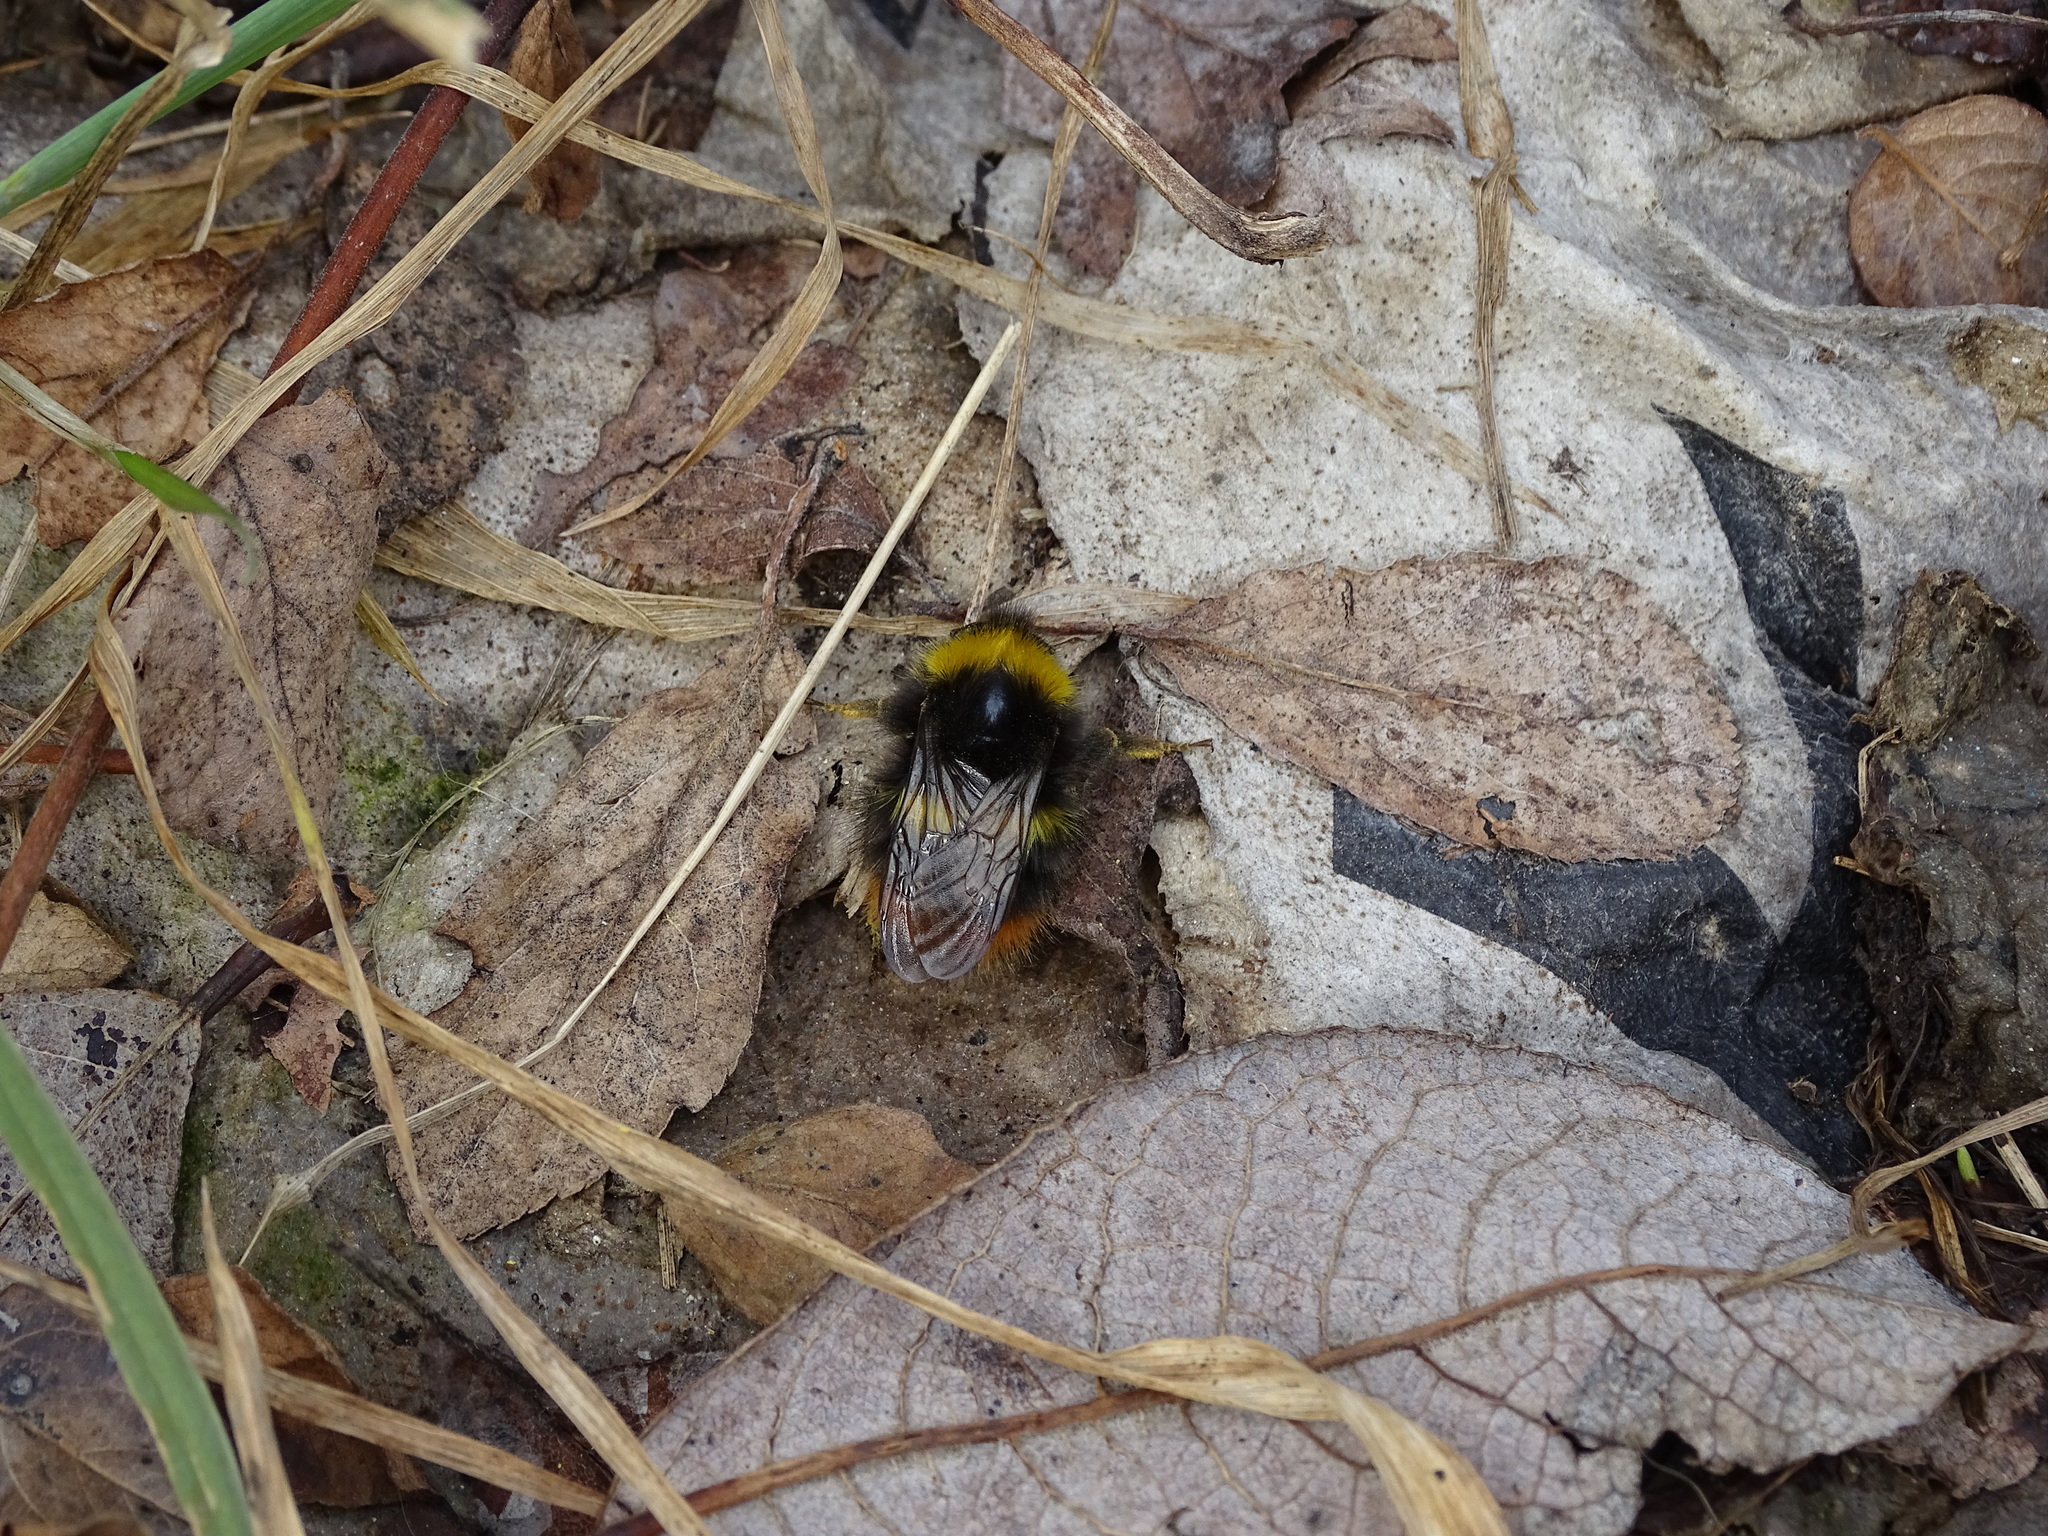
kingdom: Animalia
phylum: Arthropoda
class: Insecta
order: Hymenoptera
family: Apidae
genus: Bombus
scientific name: Bombus pratorum
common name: Early humble-bee
